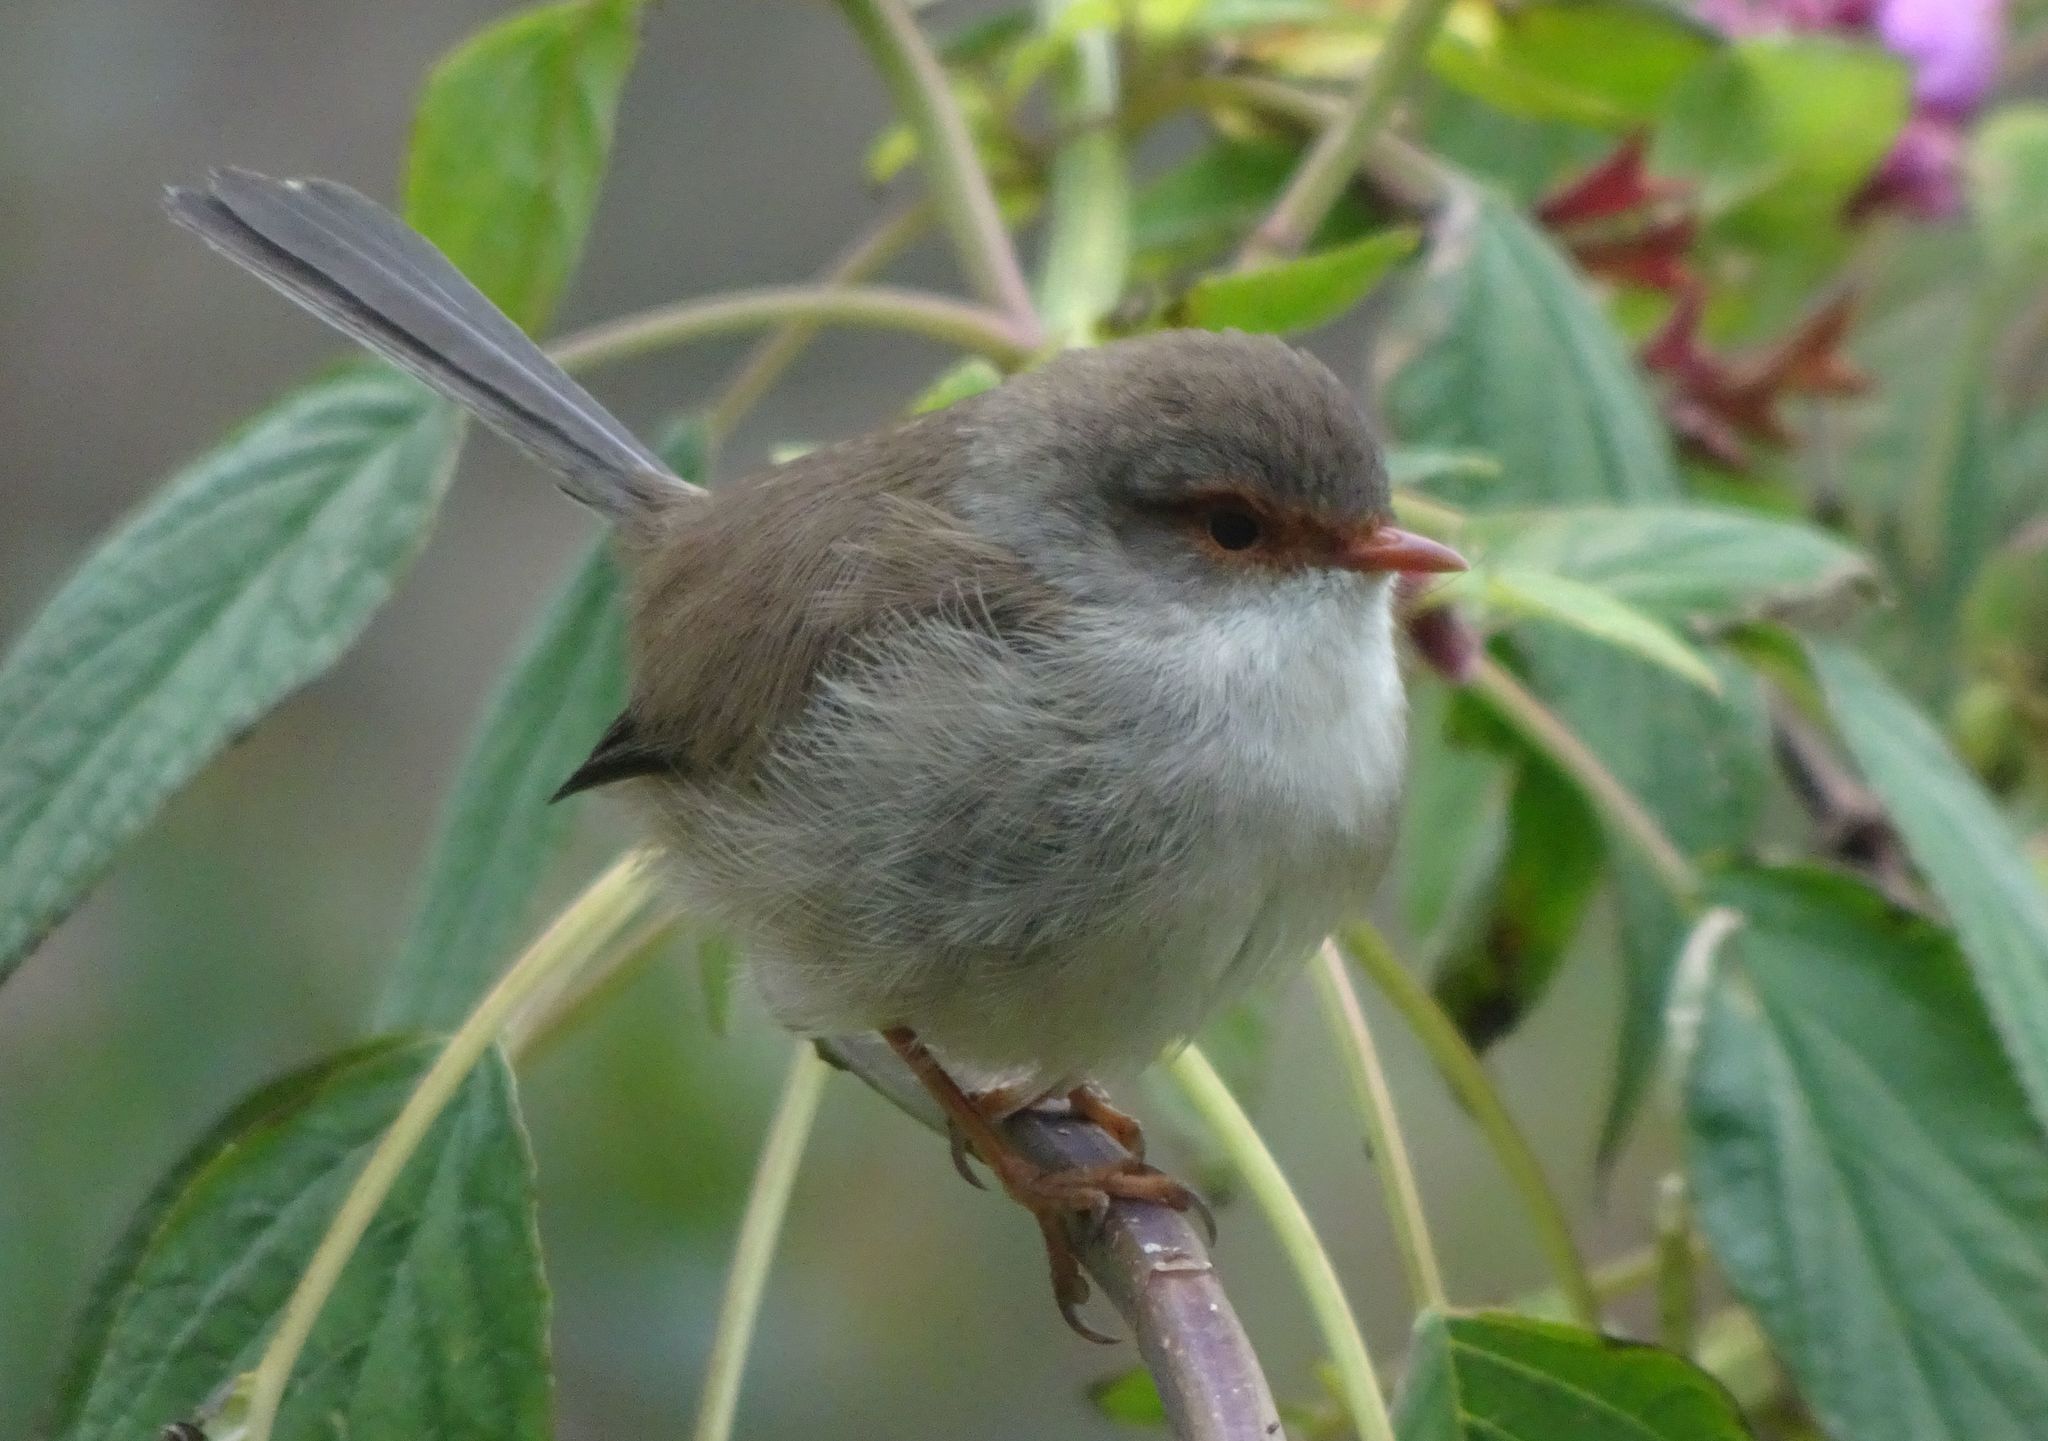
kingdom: Animalia
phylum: Chordata
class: Aves
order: Passeriformes
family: Maluridae
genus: Malurus
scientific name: Malurus cyaneus
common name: Superb fairywren
